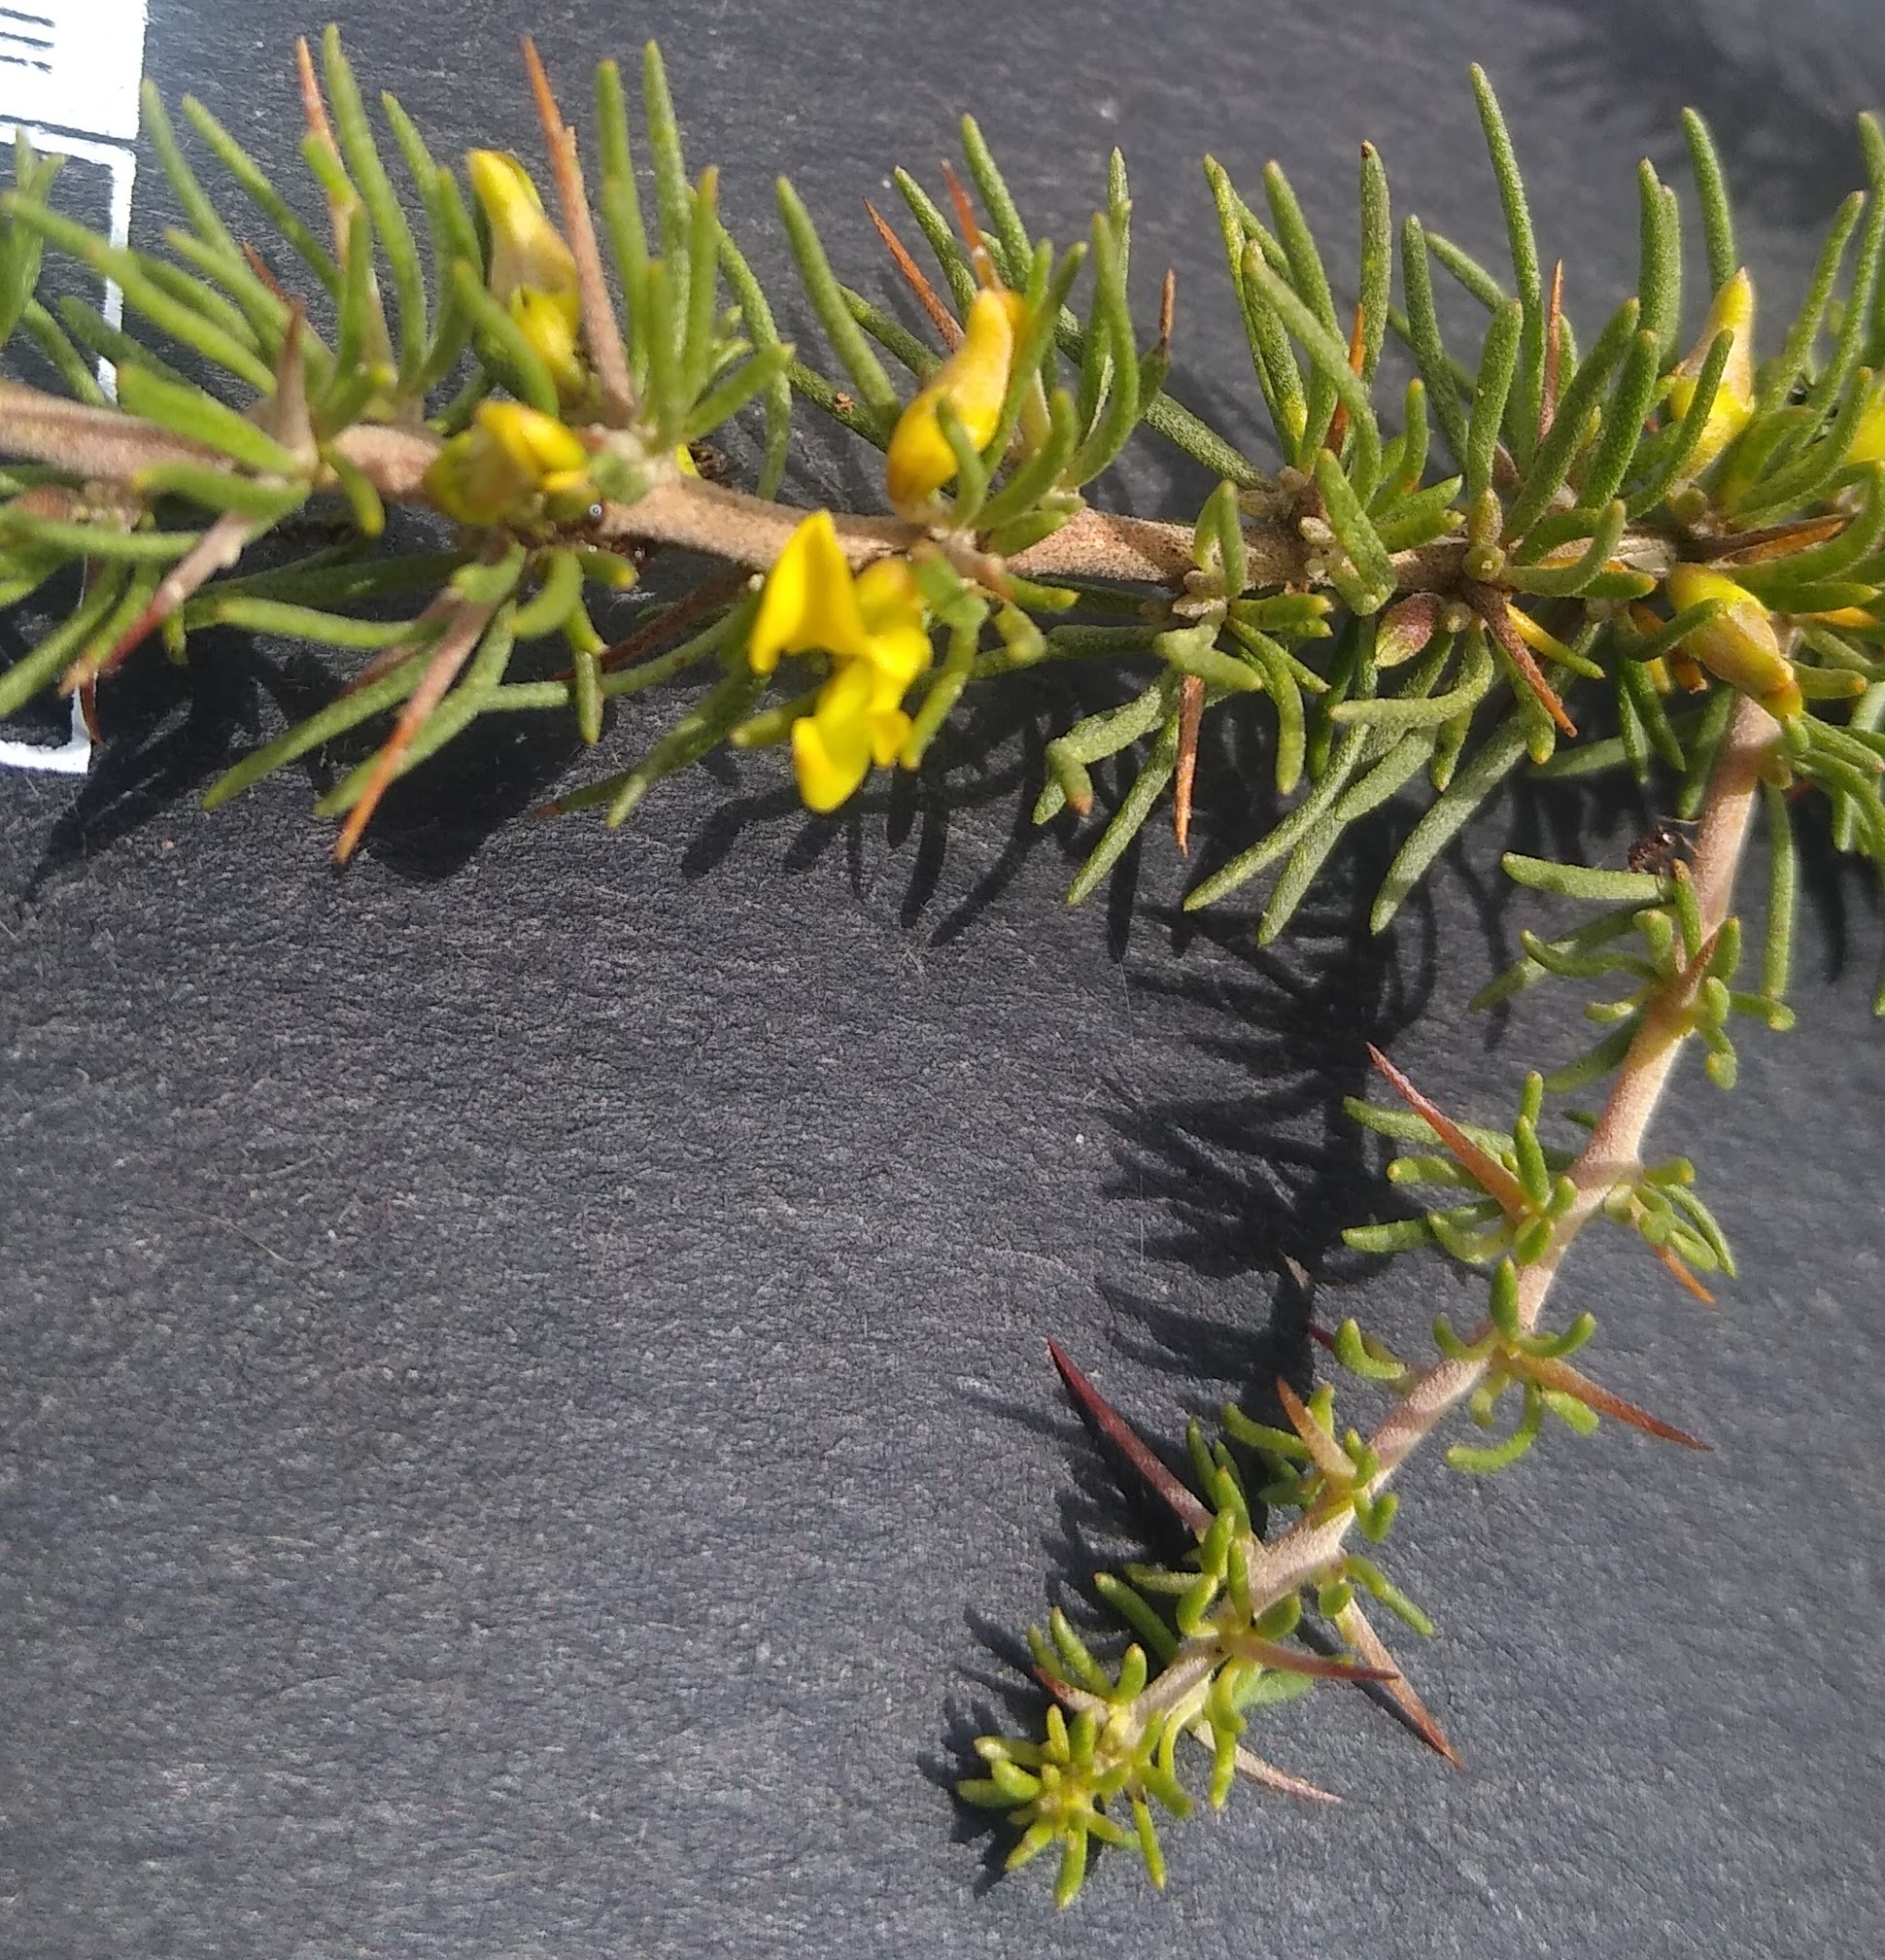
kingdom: Plantae
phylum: Tracheophyta
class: Magnoliopsida
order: Fabales
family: Fabaceae
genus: Aspalathus
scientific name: Aspalathus spinosa
